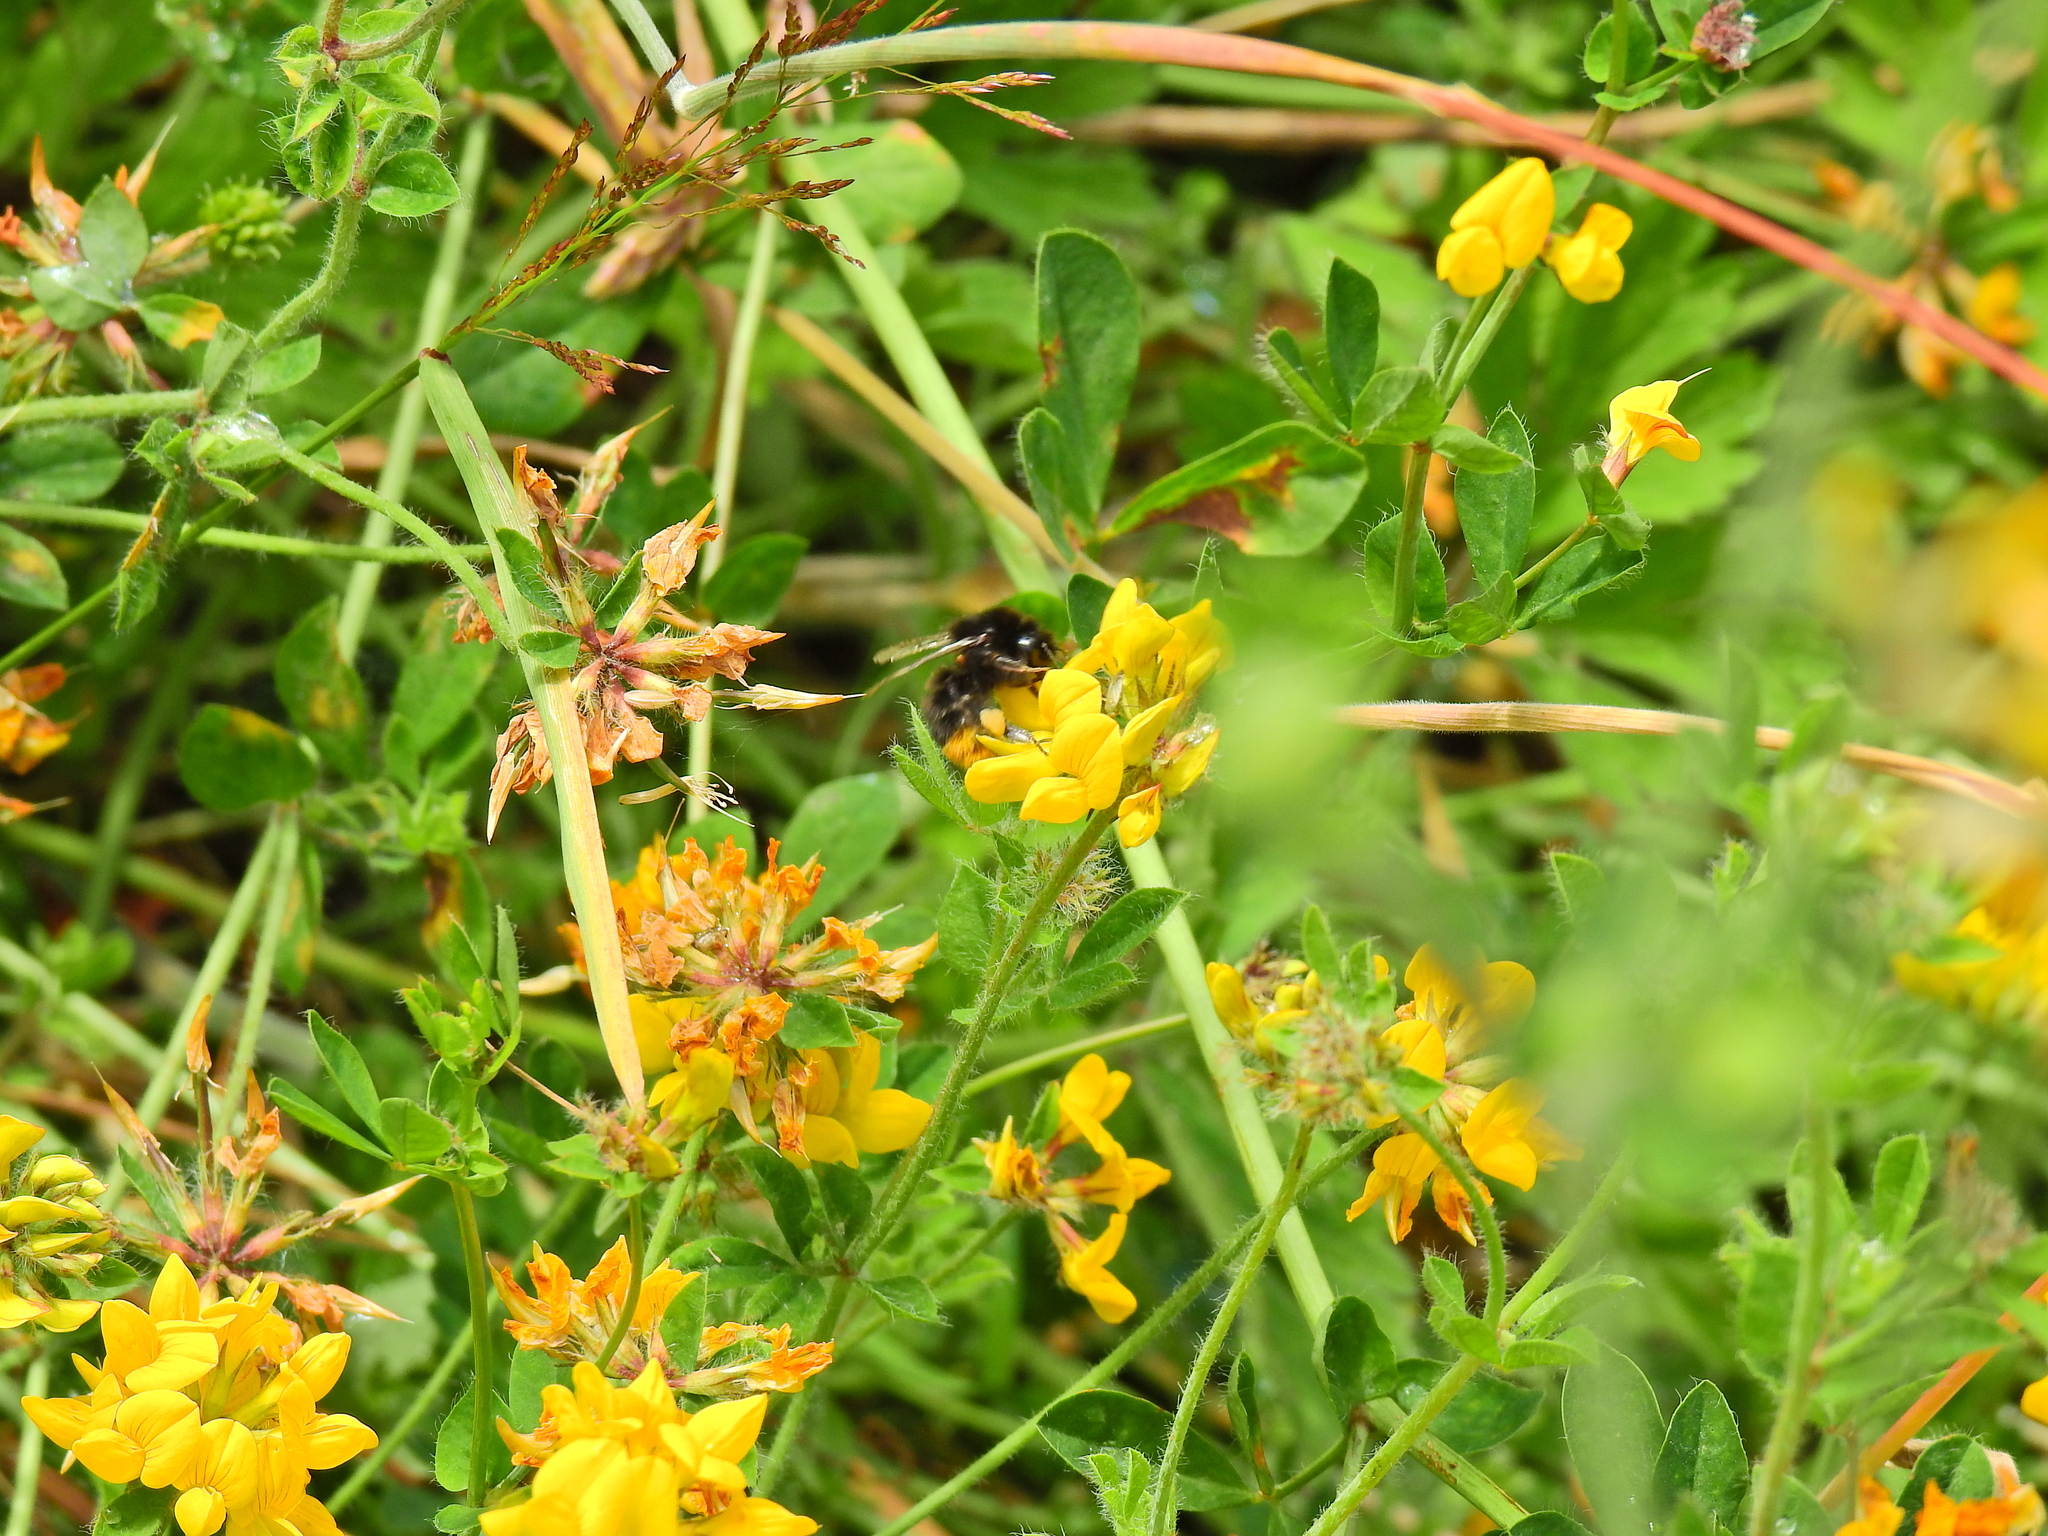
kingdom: Animalia
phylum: Arthropoda
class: Insecta
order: Hymenoptera
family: Apidae
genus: Bombus
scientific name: Bombus lapidarius
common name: Large red-tailed humble-bee
